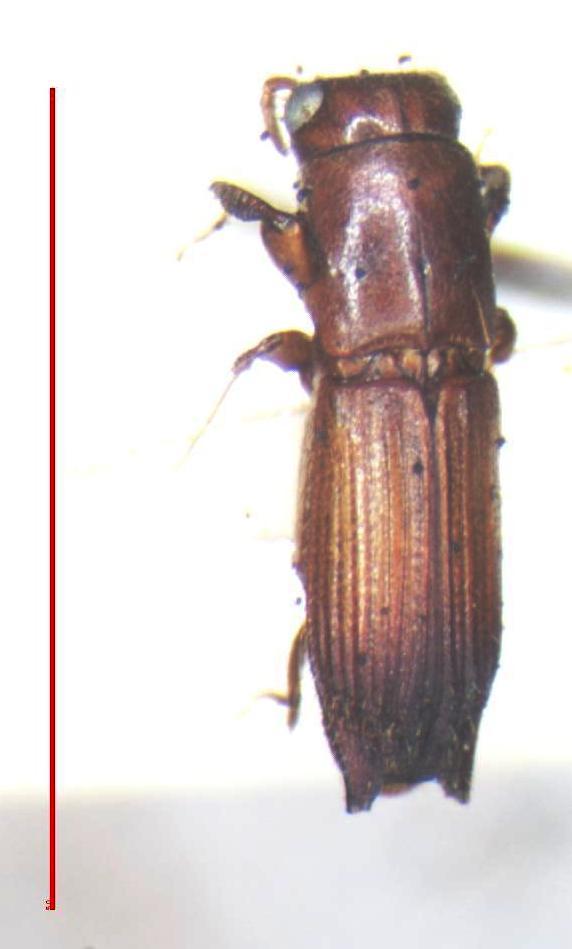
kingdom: Animalia
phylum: Arthropoda
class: Insecta
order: Coleoptera
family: Curculionidae
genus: Euplatypus
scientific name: Euplatypus parallelus
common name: Weevil
